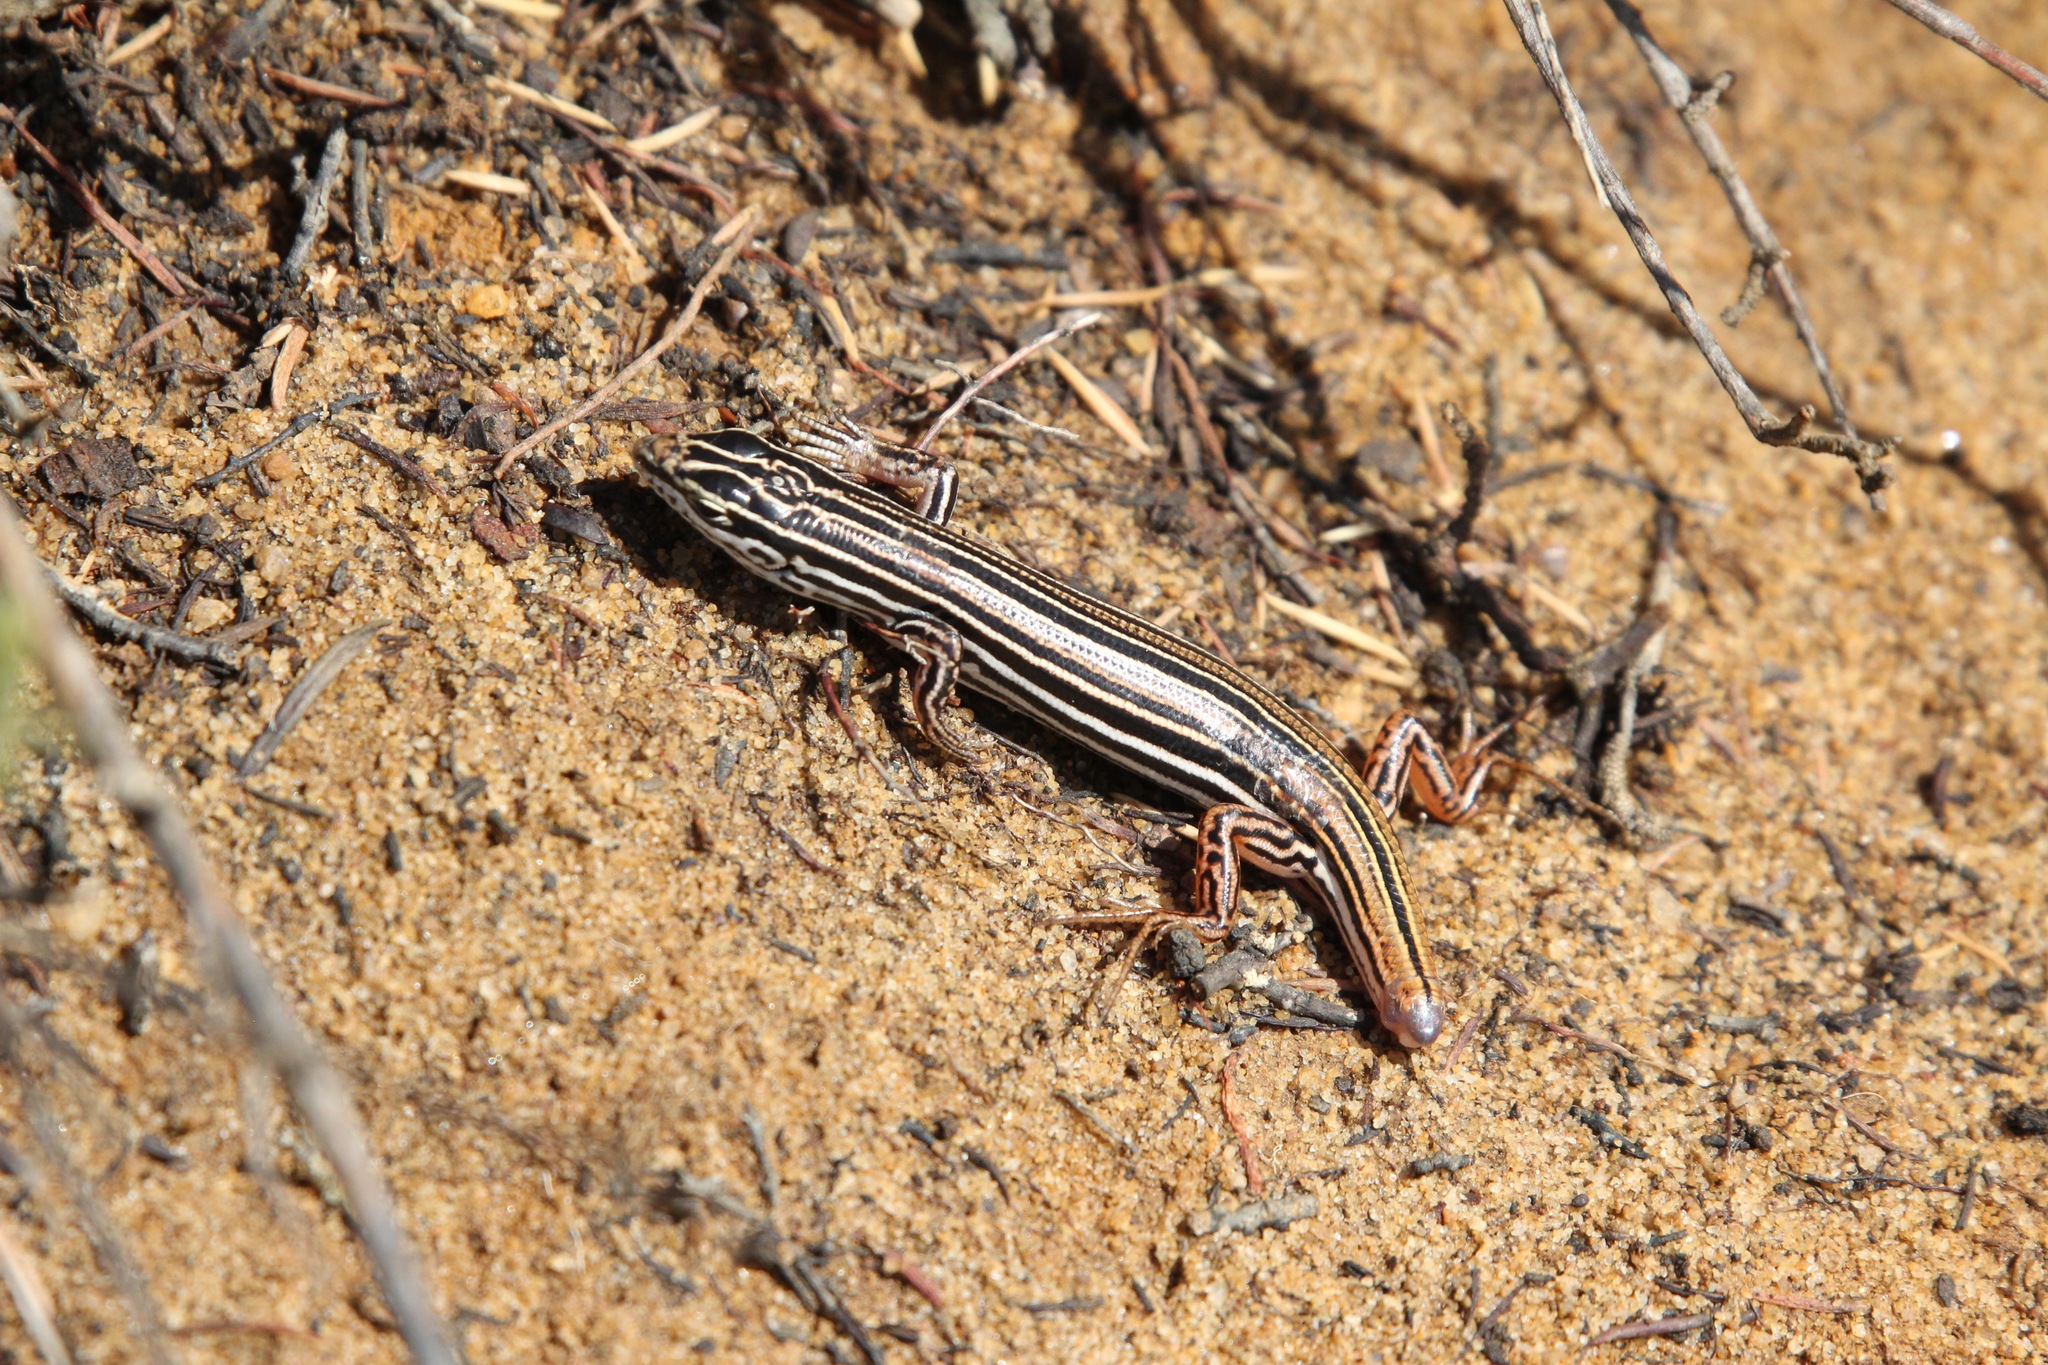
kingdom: Animalia
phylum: Chordata
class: Squamata
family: Scincidae
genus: Ctenotus
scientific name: Ctenotus taeniolatus
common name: Copper-tailed skink
